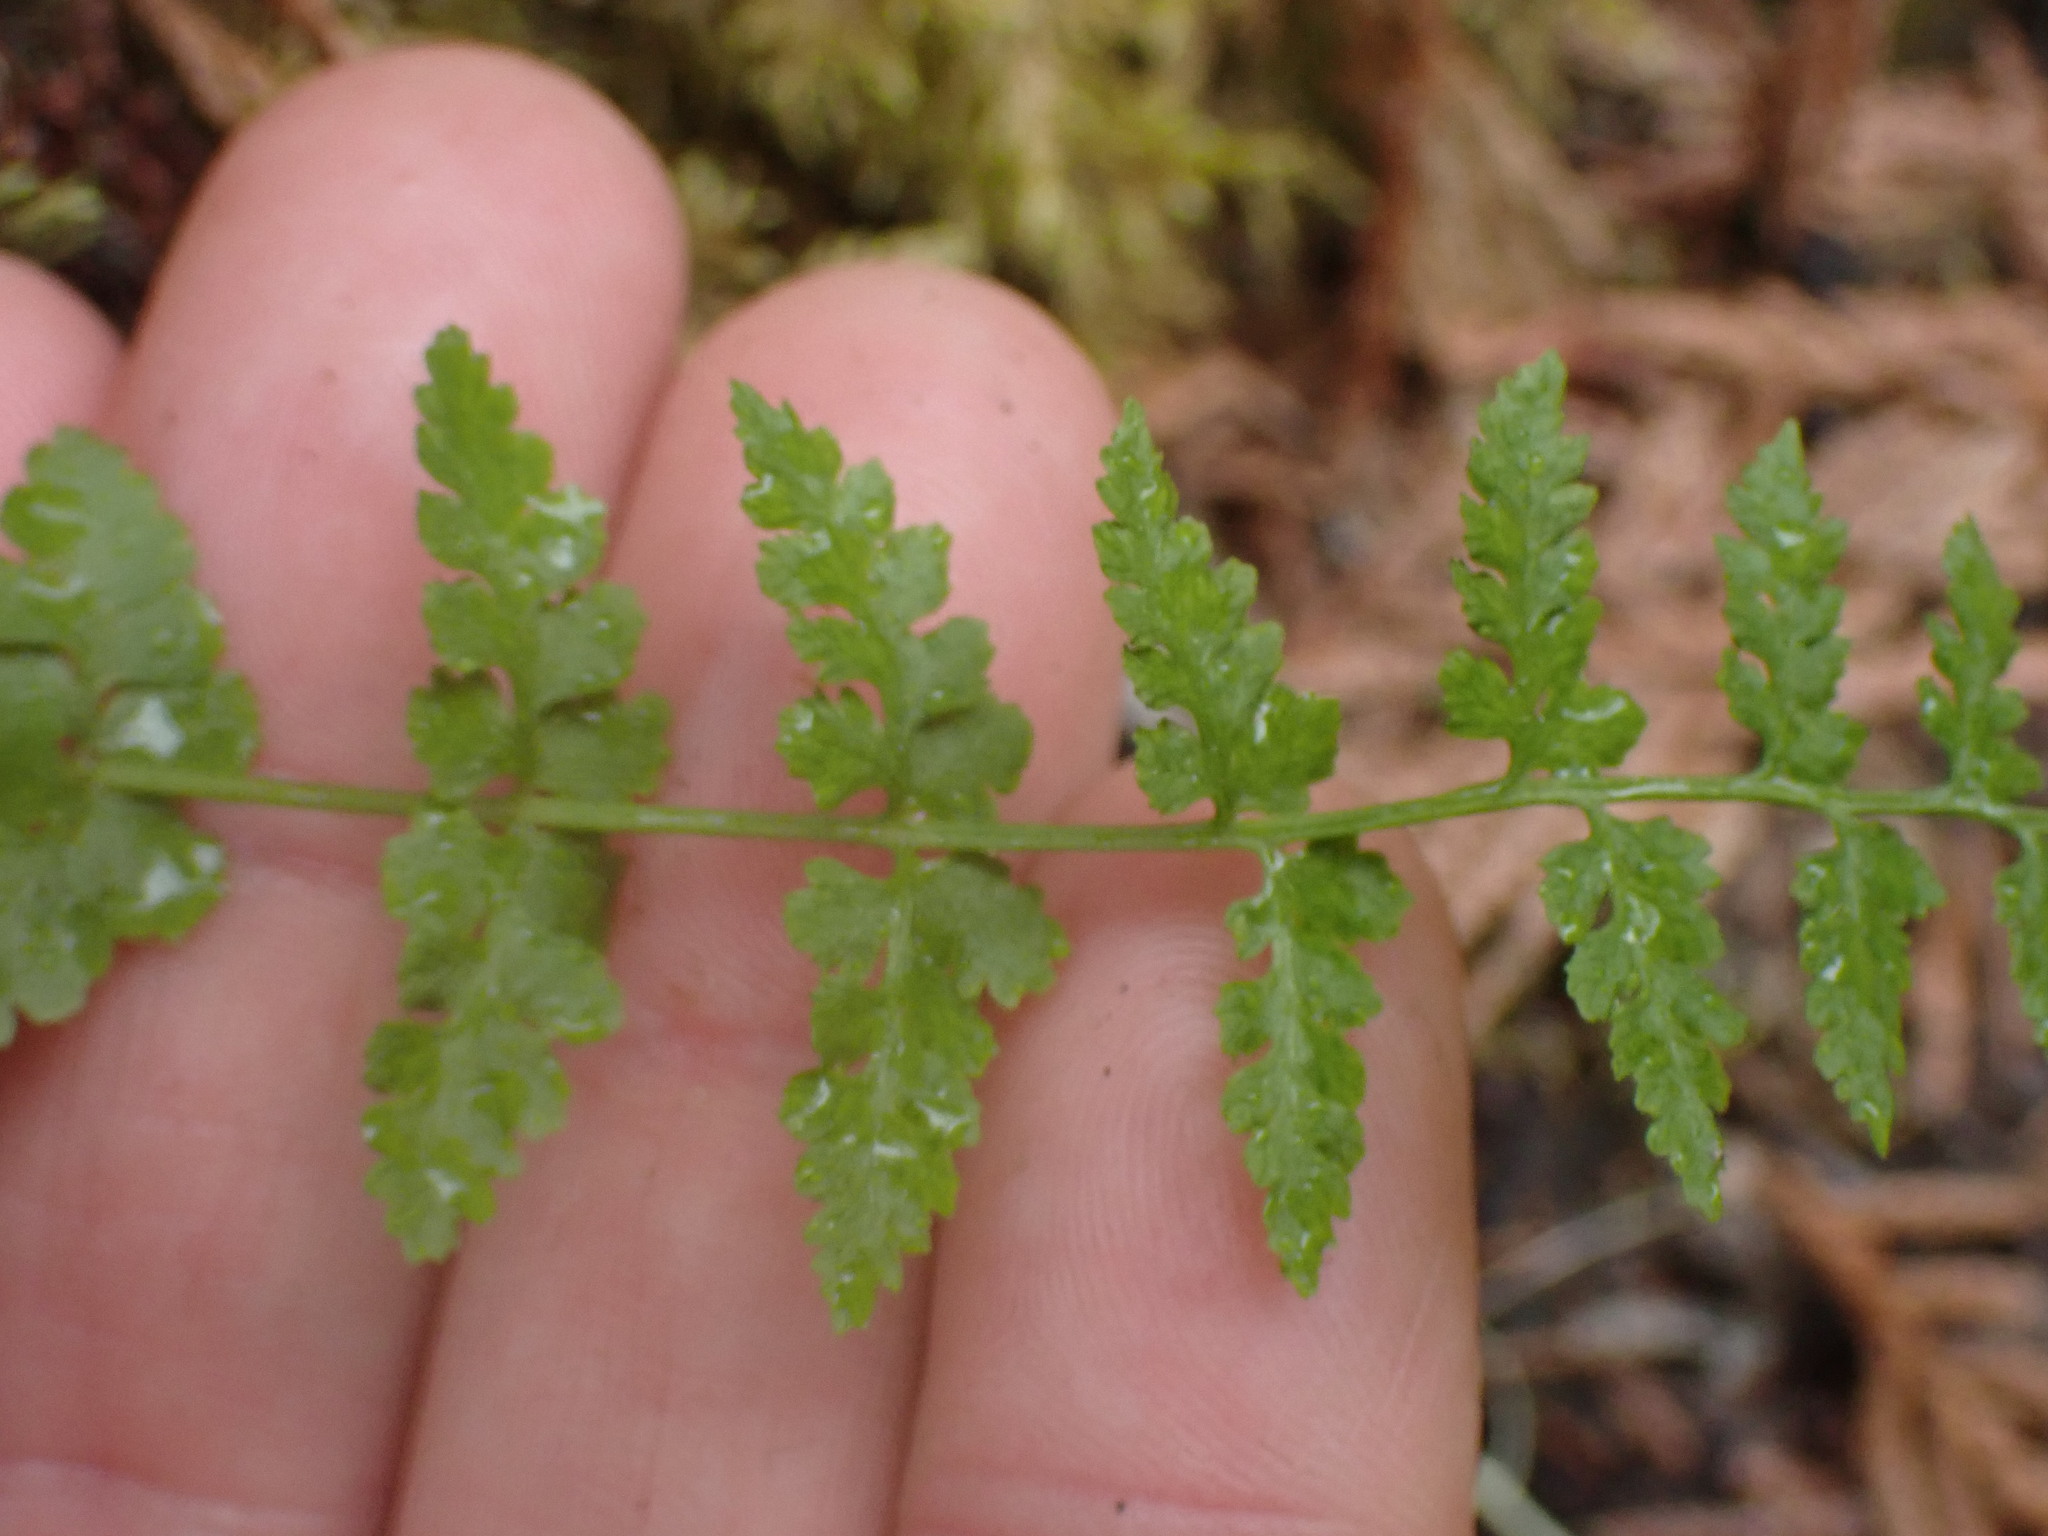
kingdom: Plantae
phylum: Tracheophyta
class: Polypodiopsida
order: Polypodiales
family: Cystopteridaceae
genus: Cystopteris
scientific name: Cystopteris fragilis
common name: Brittle bladder fern
